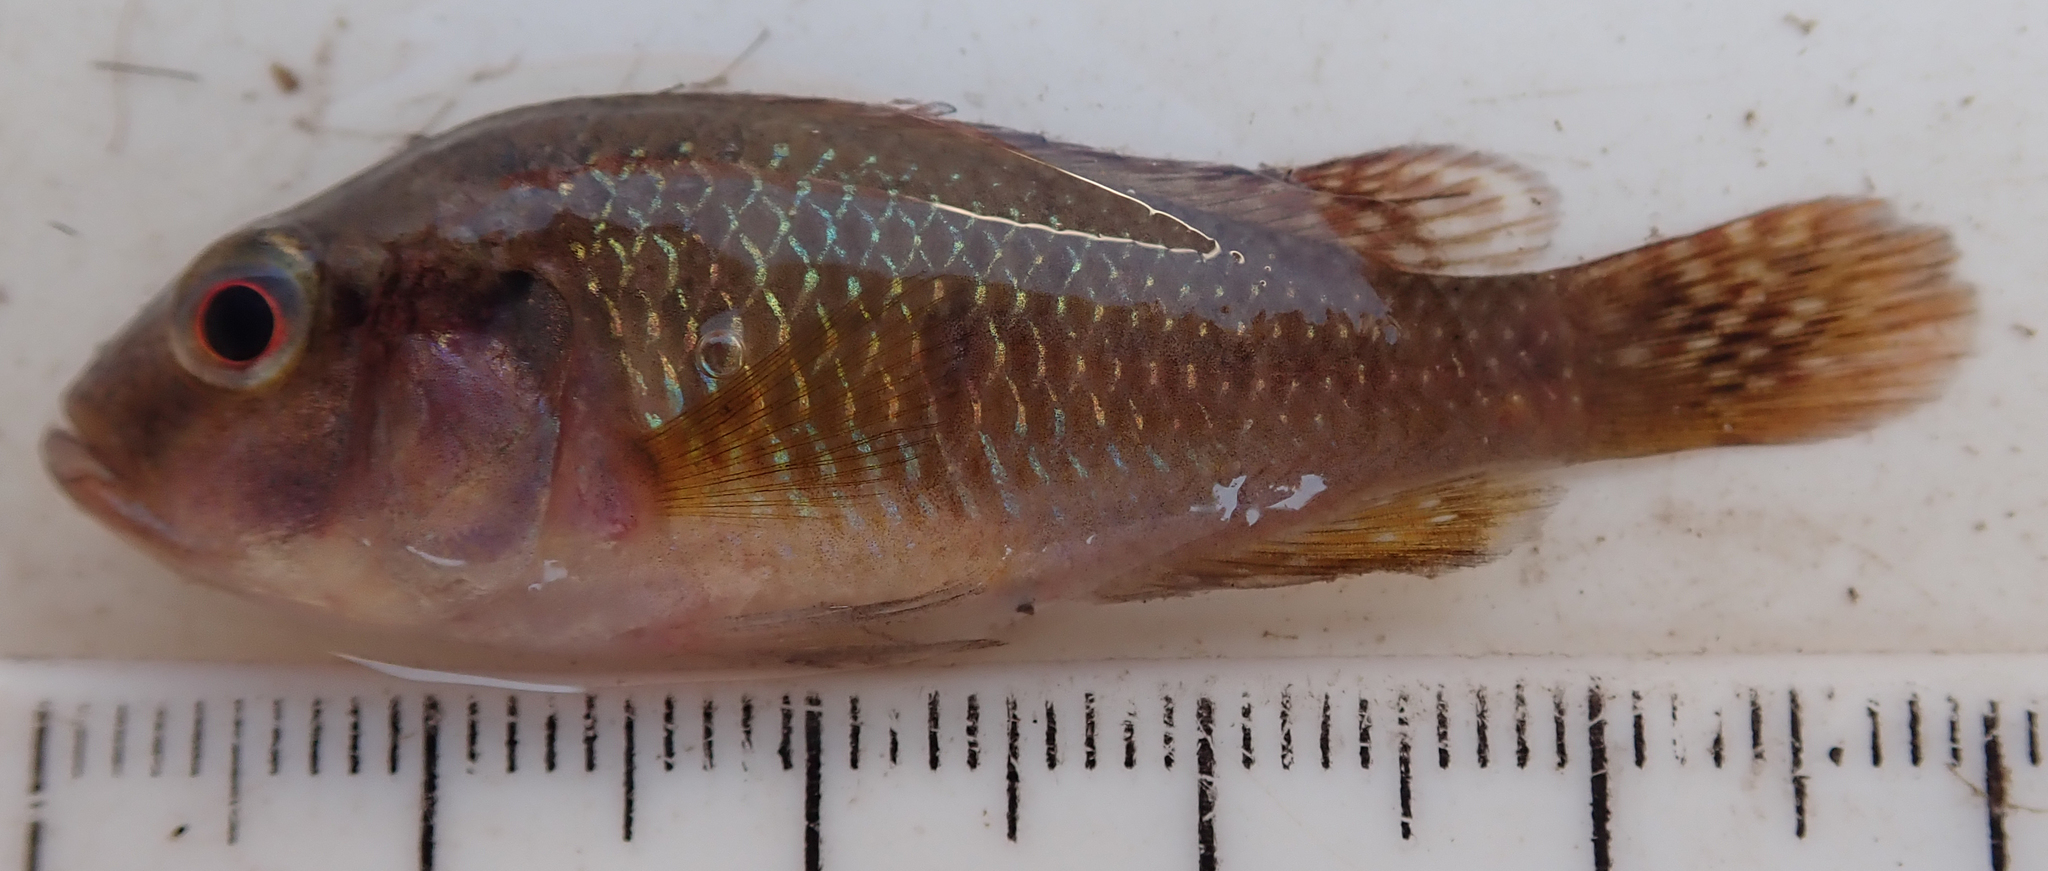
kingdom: Animalia
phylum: Chordata
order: Perciformes
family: Cichlidae
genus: Pseudocrenilabrus
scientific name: Pseudocrenilabrus philander
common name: Southern mouthbrooder
